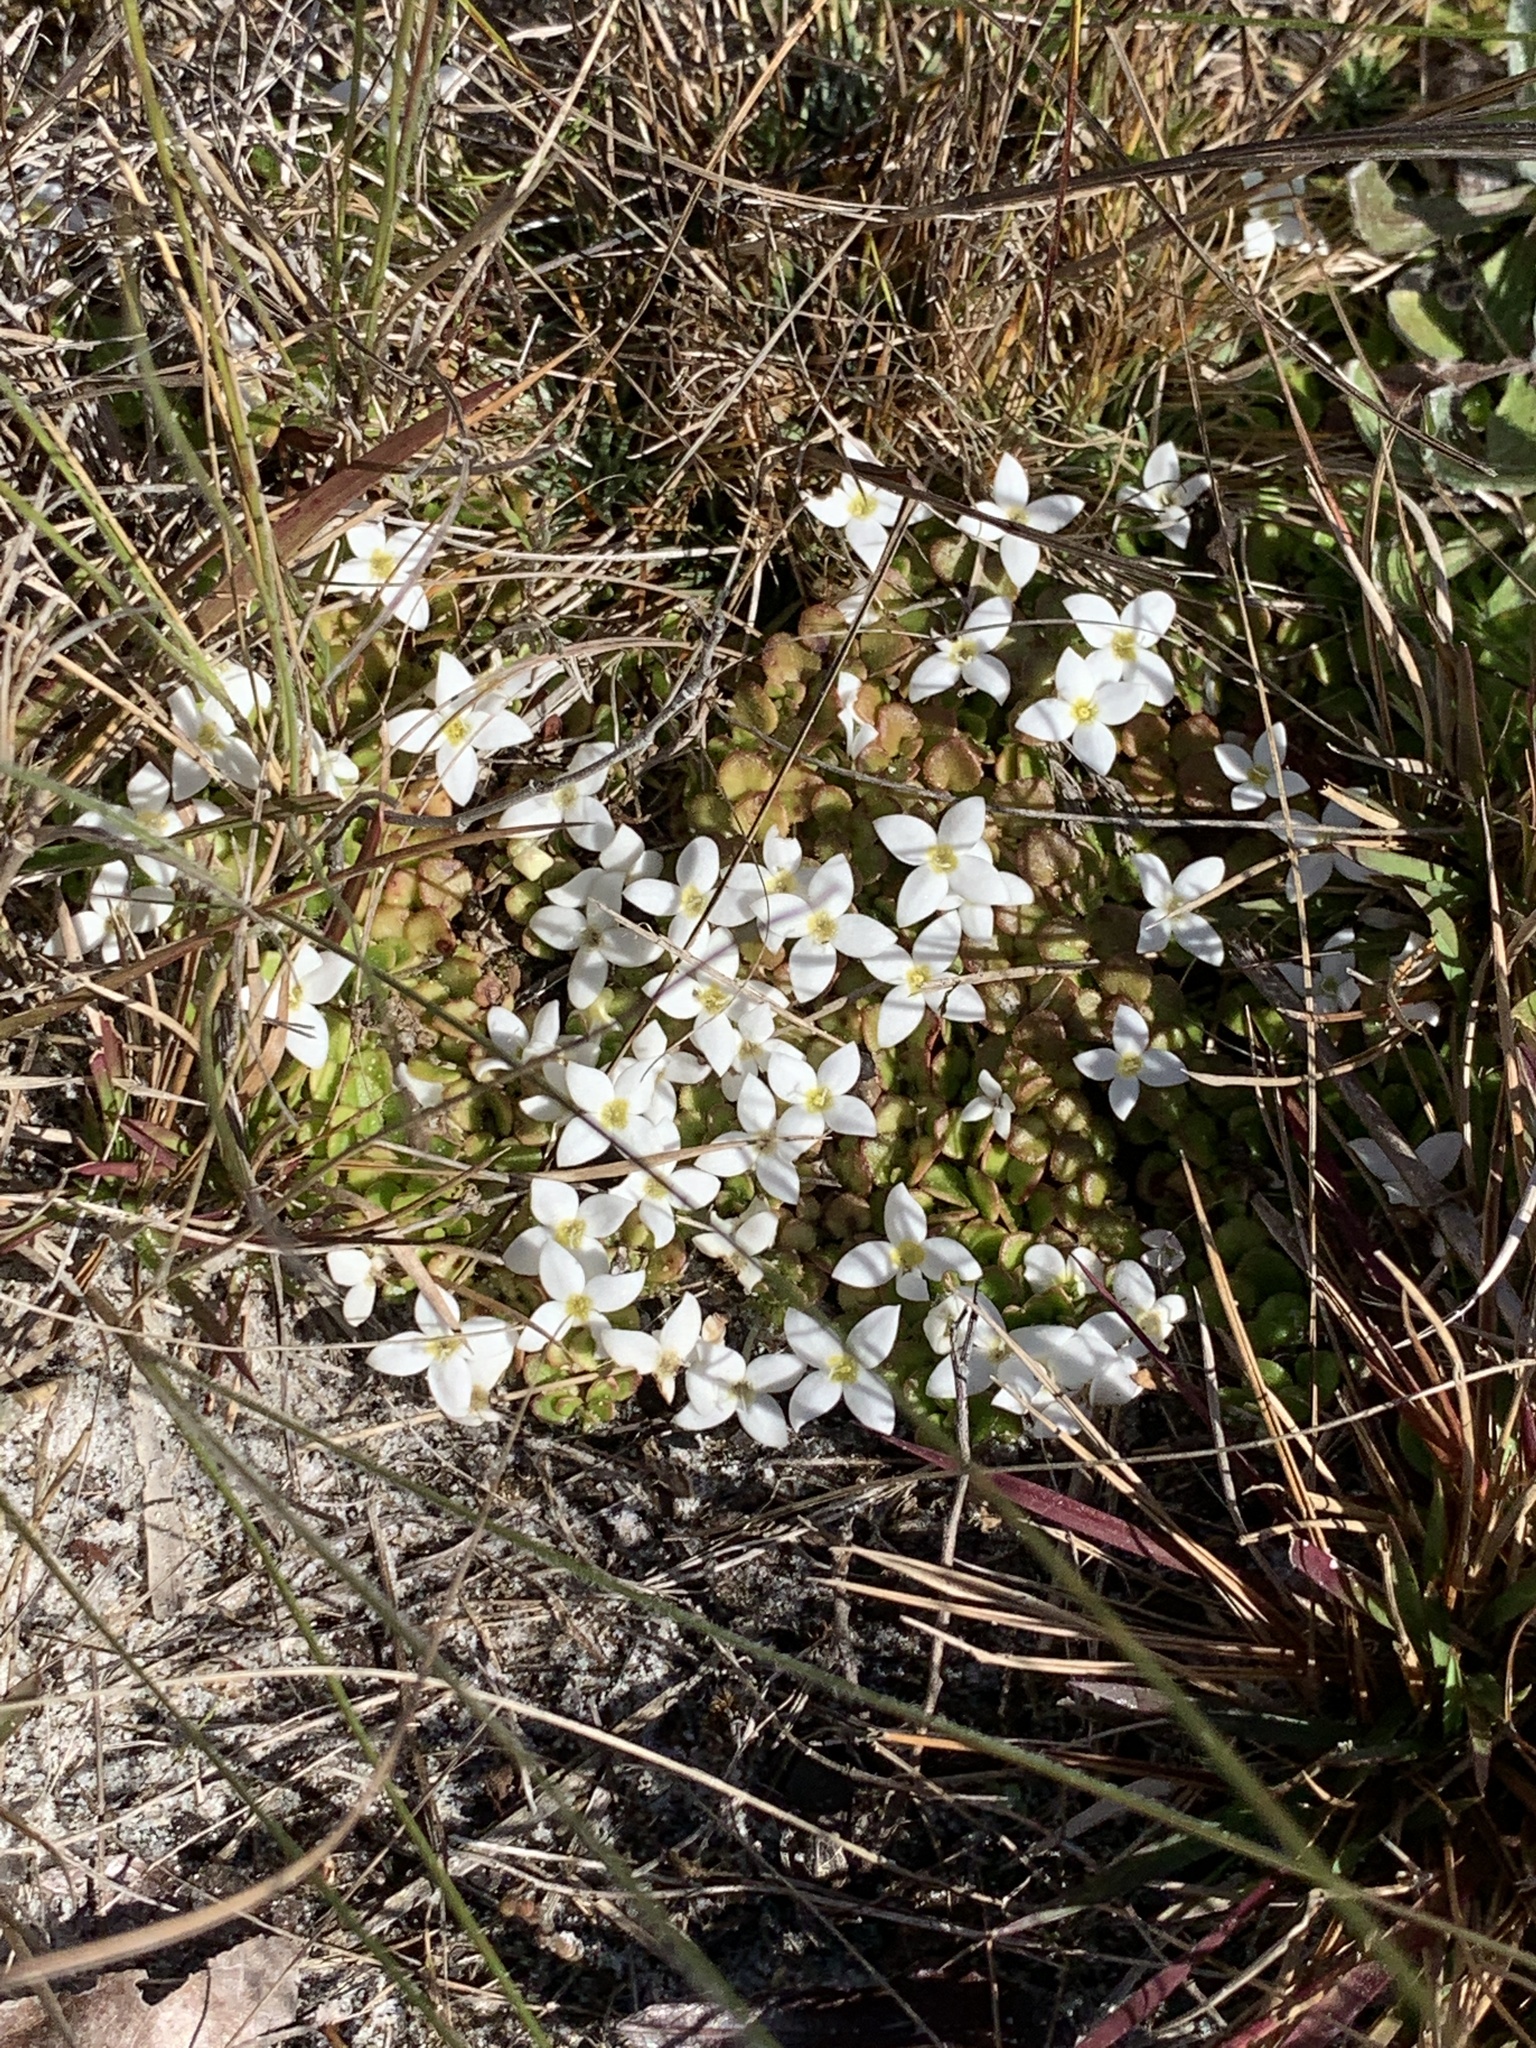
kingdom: Plantae
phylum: Tracheophyta
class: Magnoliopsida
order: Gentianales
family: Rubiaceae
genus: Houstonia
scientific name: Houstonia procumbens
